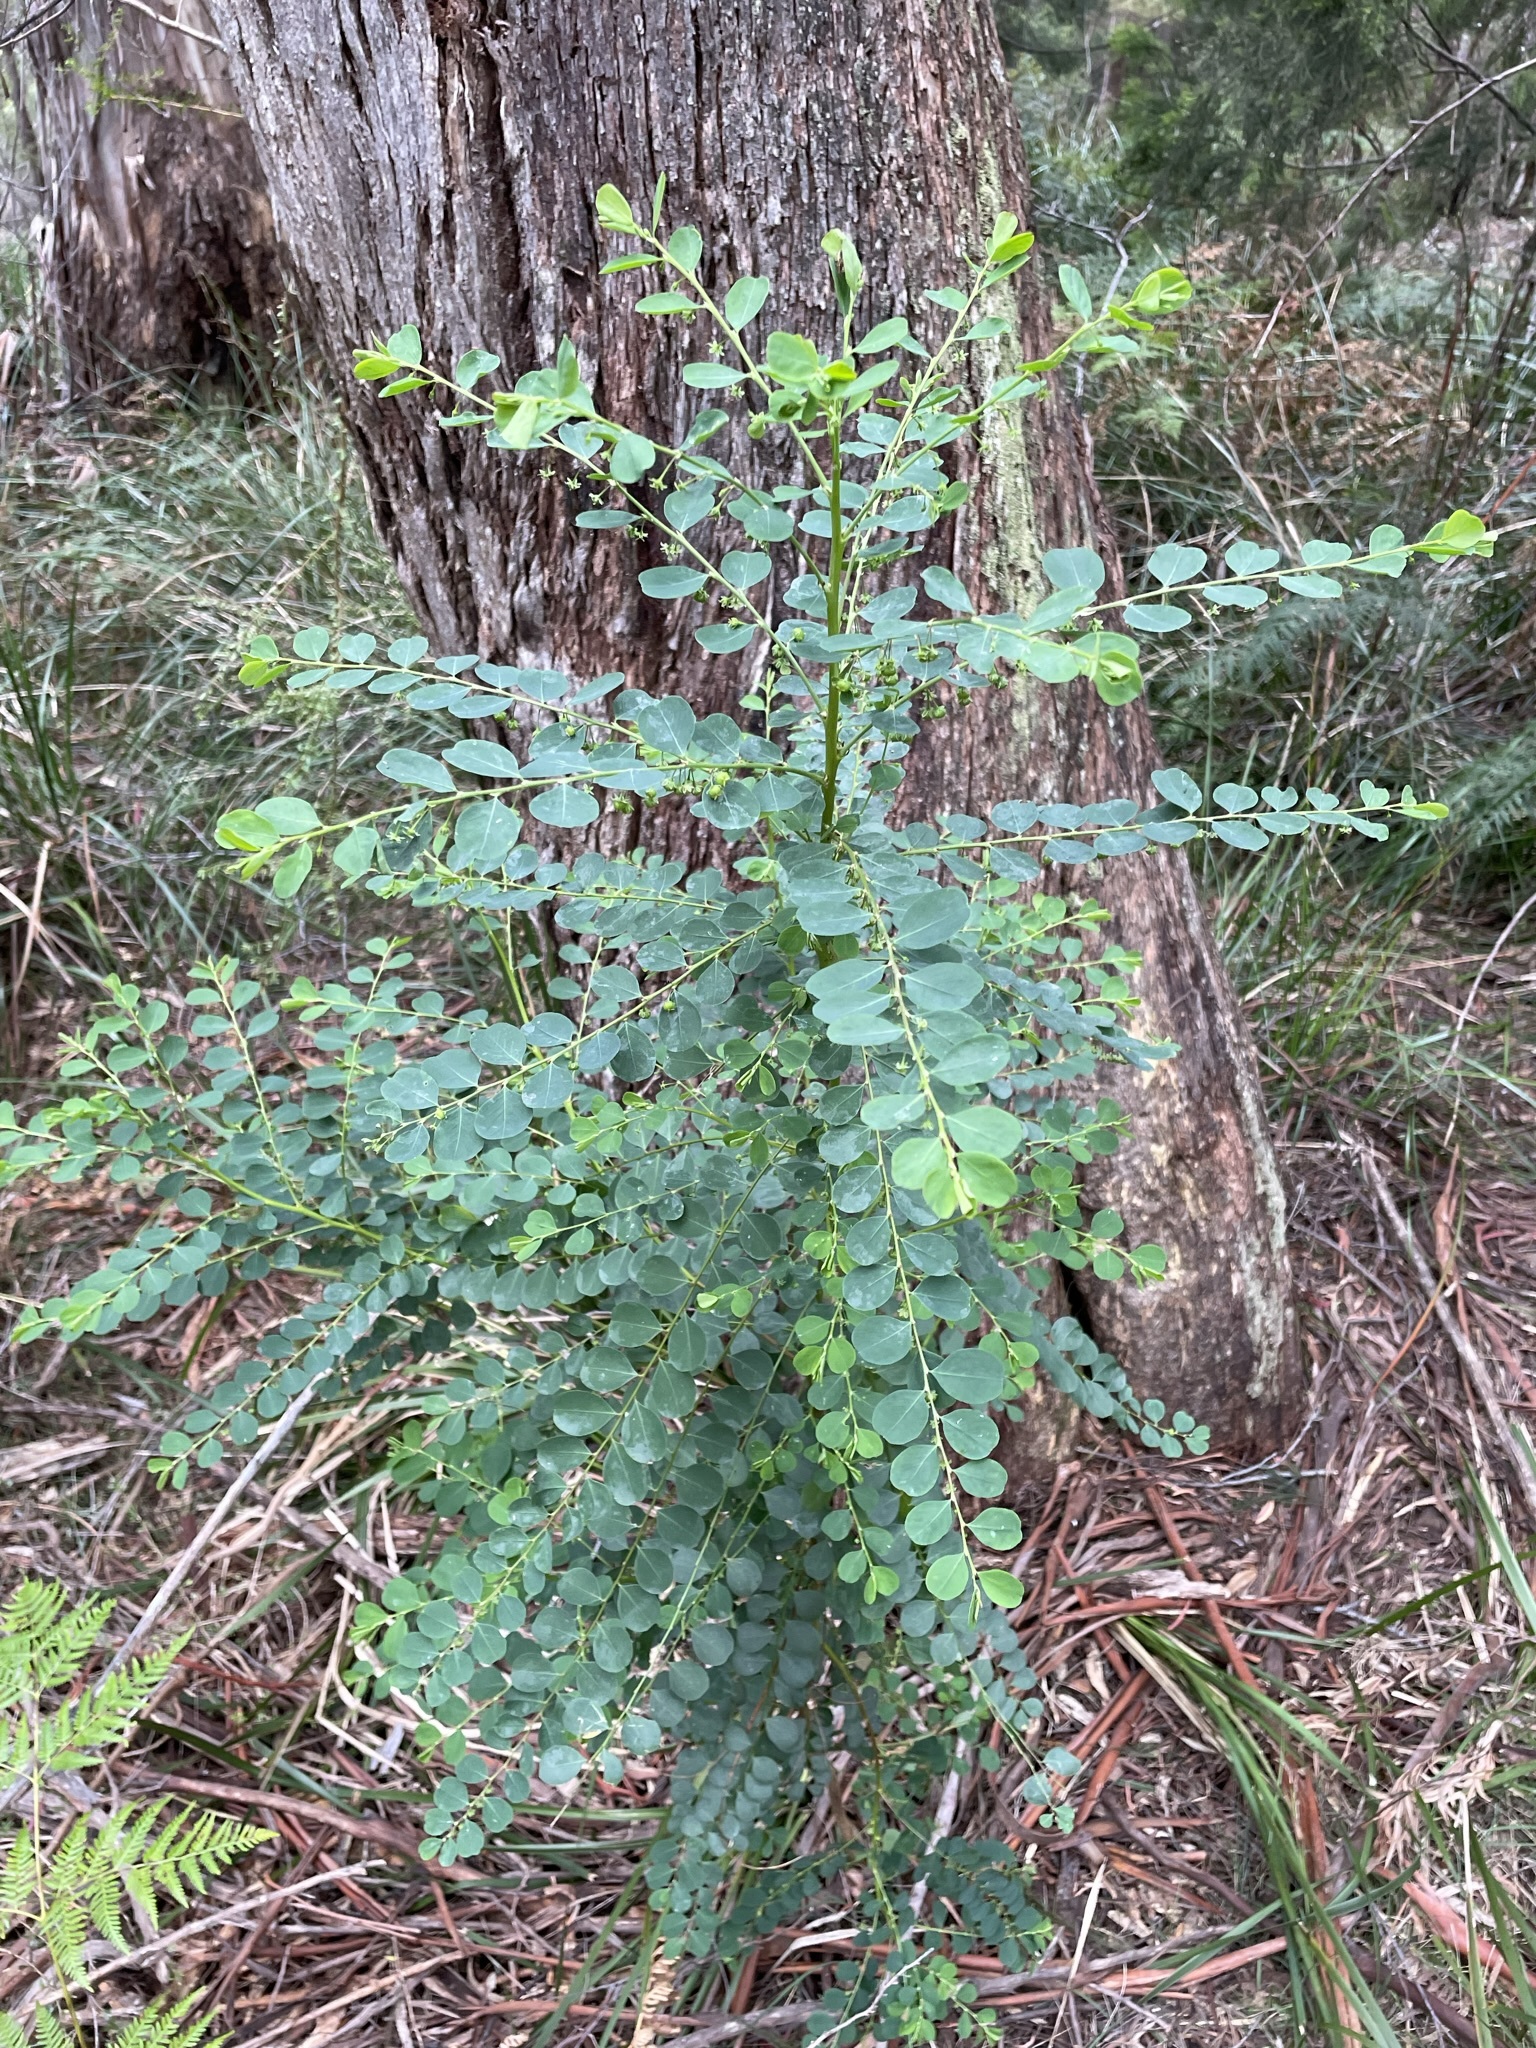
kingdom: Plantae
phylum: Tracheophyta
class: Magnoliopsida
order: Malpighiales
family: Phyllanthaceae
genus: Phyllanthus
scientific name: Phyllanthus gunnii
